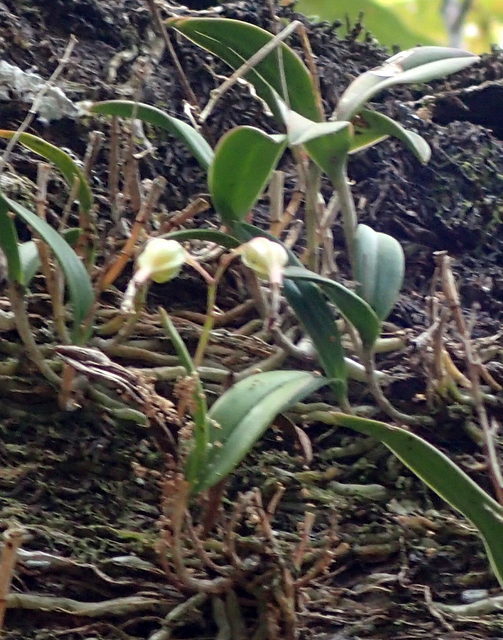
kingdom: Plantae
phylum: Tracheophyta
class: Liliopsida
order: Asparagales
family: Orchidaceae
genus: Epidendrum
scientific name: Epidendrum conopseum
